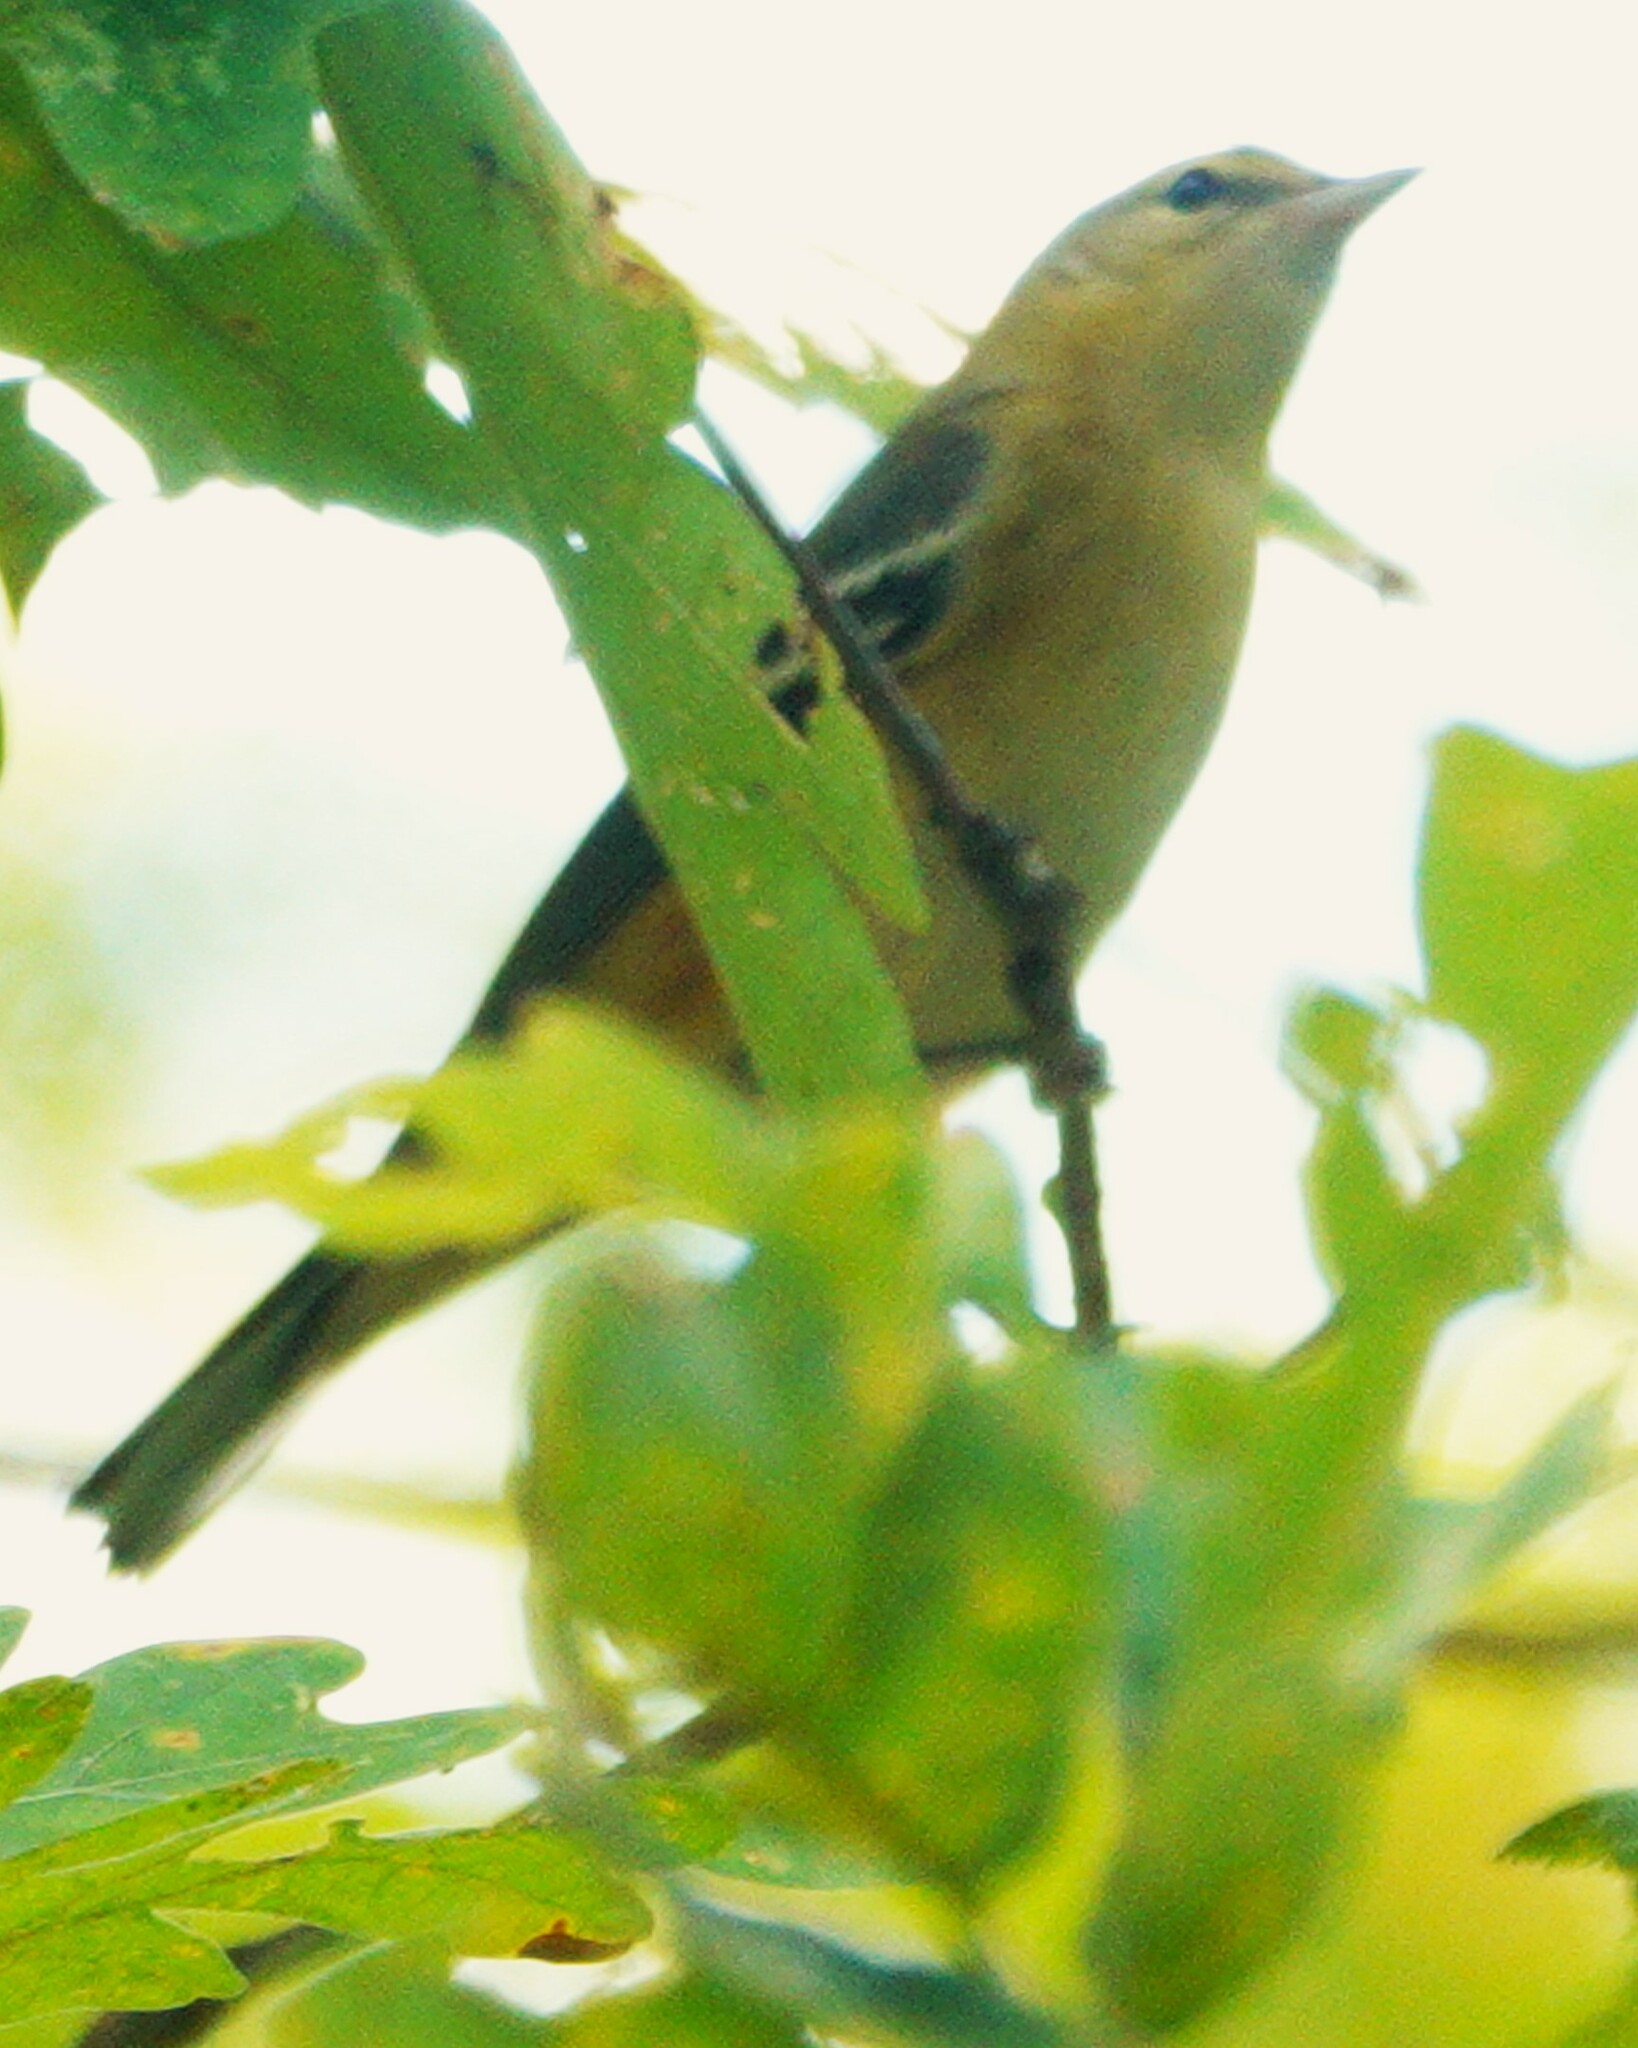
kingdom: Animalia
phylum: Chordata
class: Aves
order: Passeriformes
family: Parulidae
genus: Setophaga
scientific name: Setophaga castanea
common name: Bay-breasted warbler
